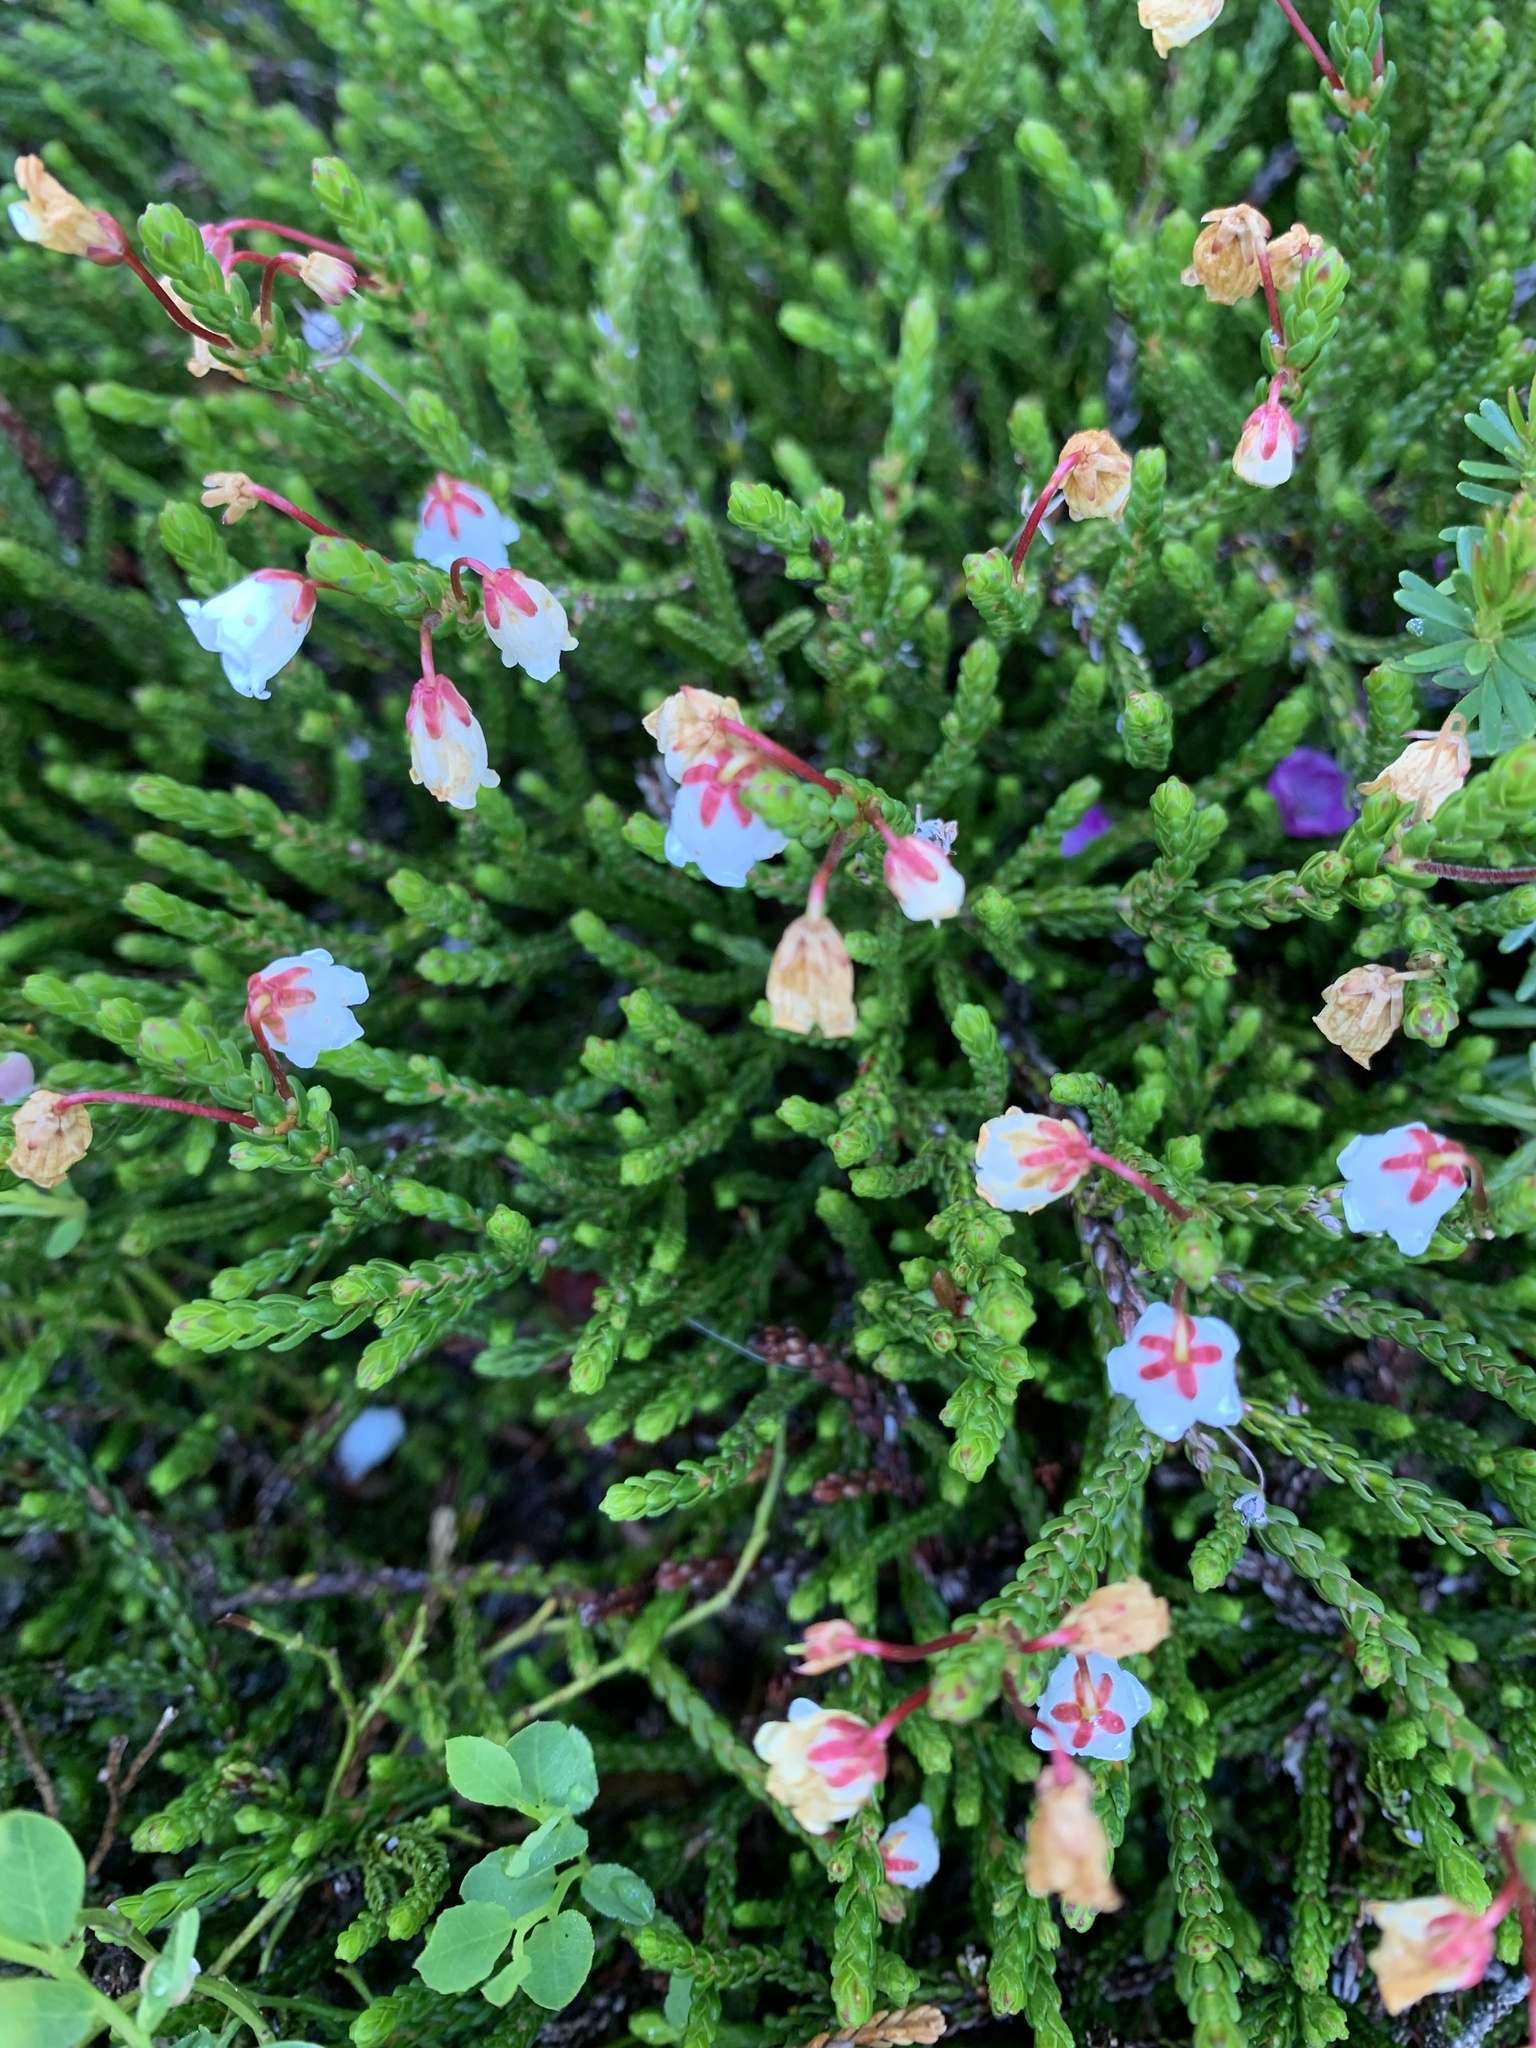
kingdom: Plantae
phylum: Tracheophyta
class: Magnoliopsida
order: Ericales
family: Ericaceae
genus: Cassiope
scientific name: Cassiope mertensiana
